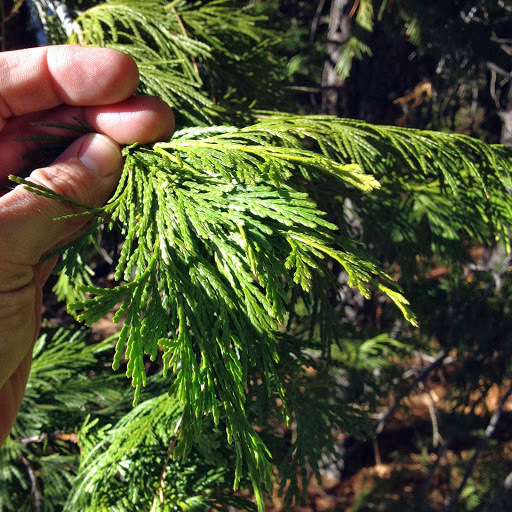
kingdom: Plantae
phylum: Tracheophyta
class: Pinopsida
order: Pinales
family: Cupressaceae
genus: Calocedrus
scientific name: Calocedrus decurrens
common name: Californian incense-cedar
